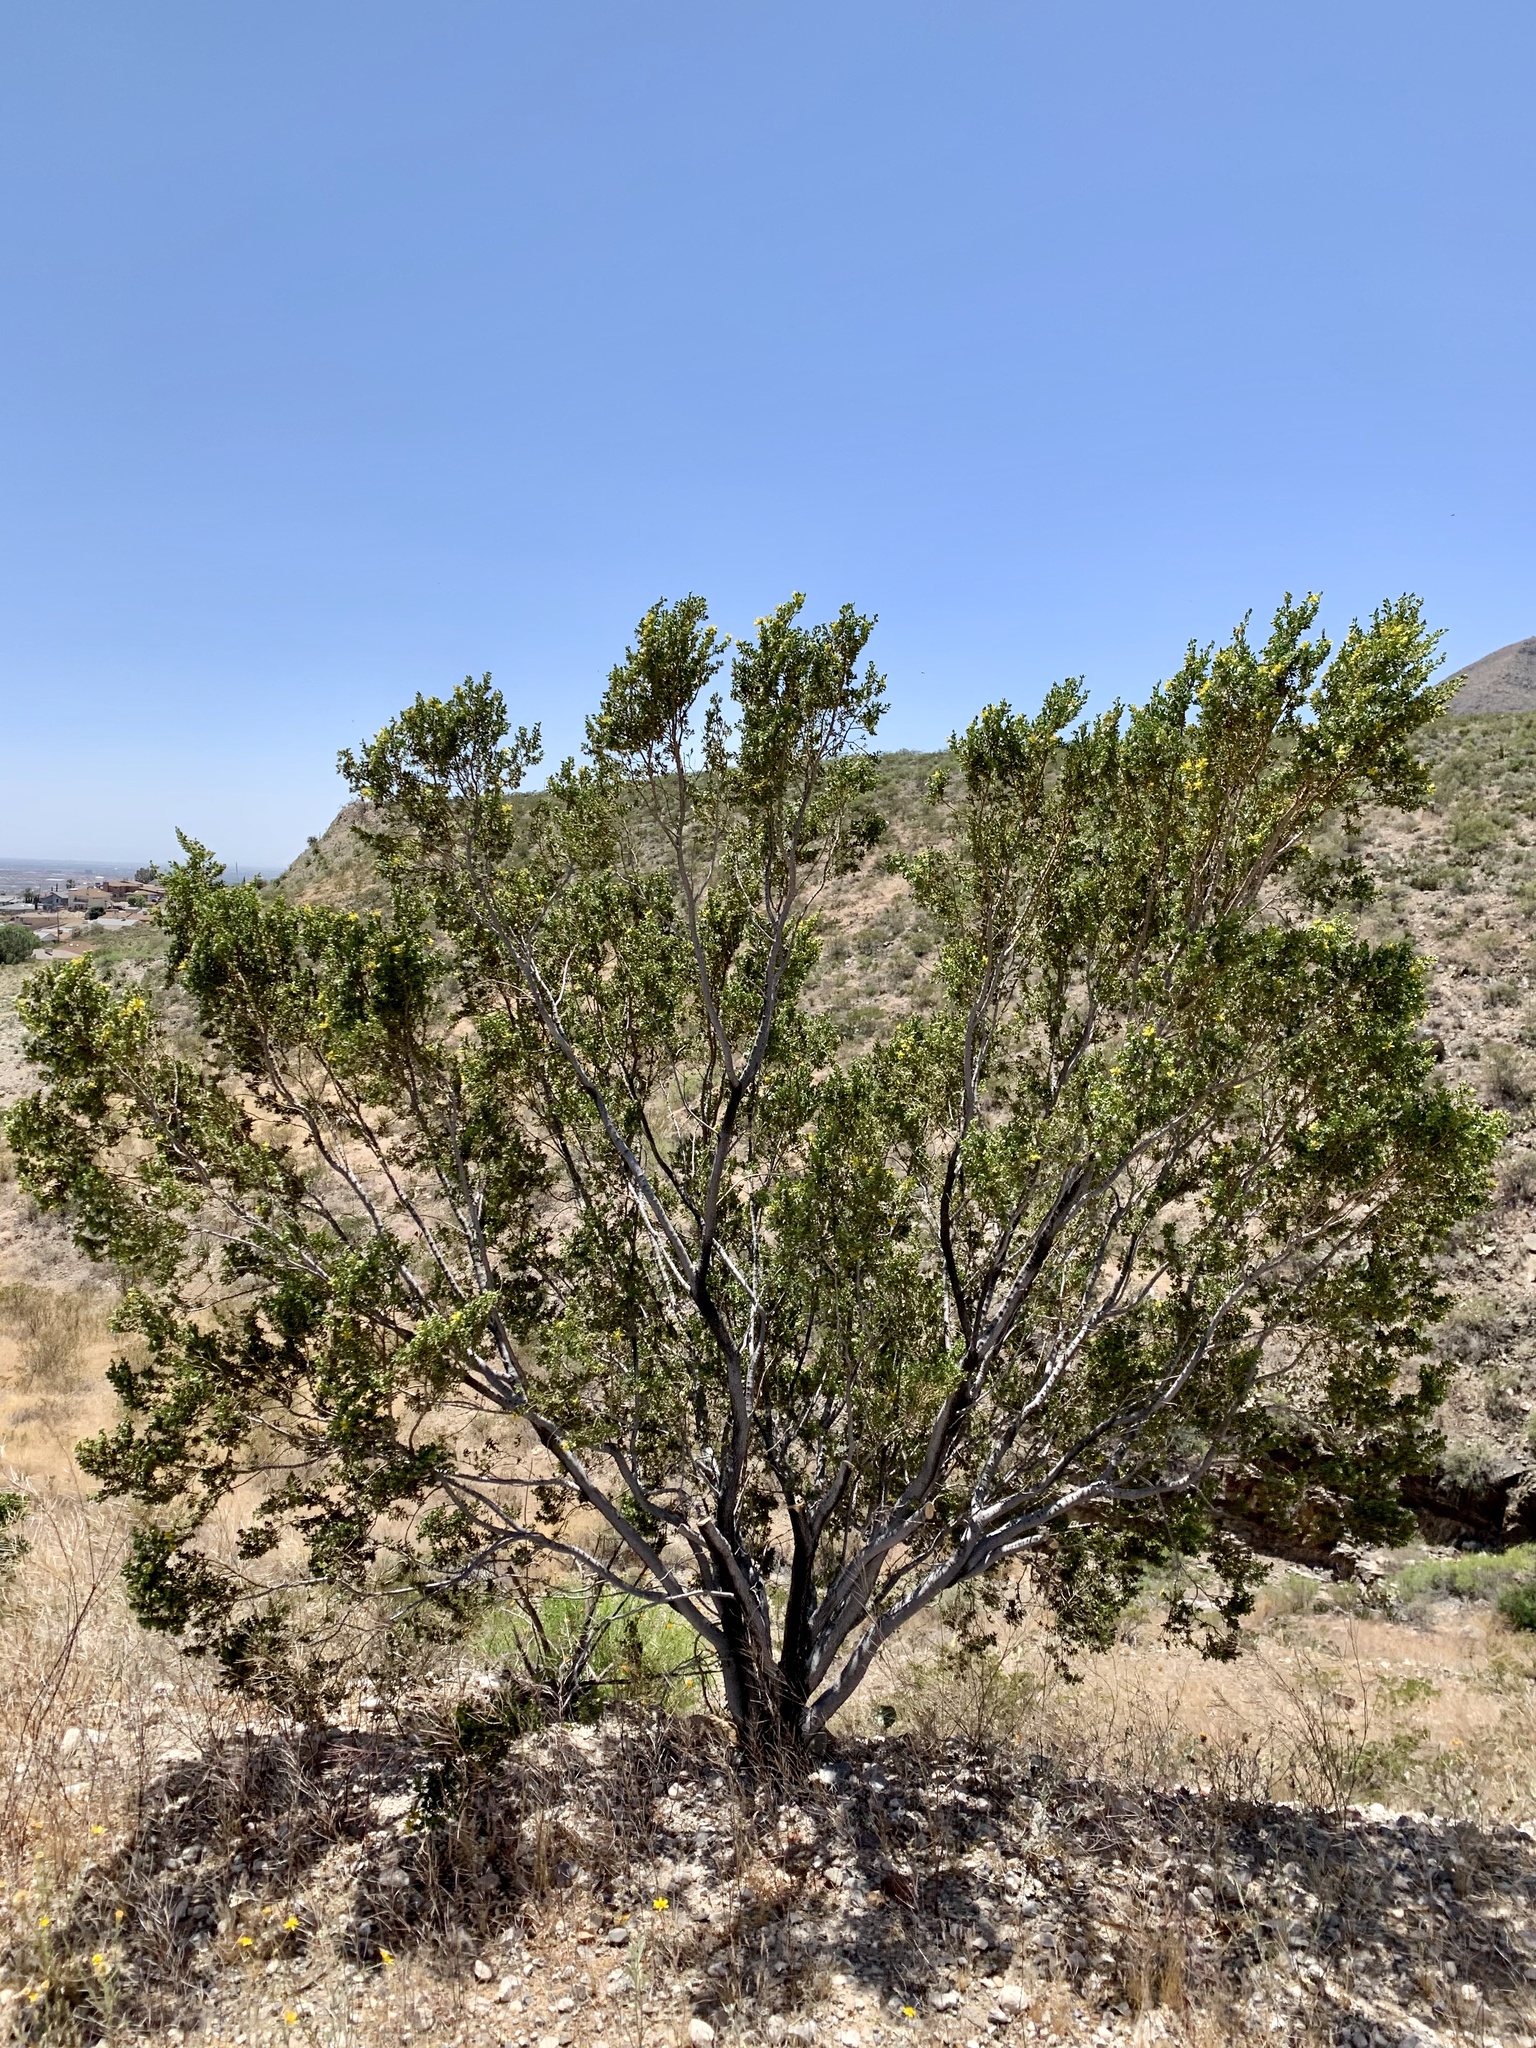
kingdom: Plantae
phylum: Tracheophyta
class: Magnoliopsida
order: Zygophyllales
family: Zygophyllaceae
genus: Larrea
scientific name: Larrea tridentata
